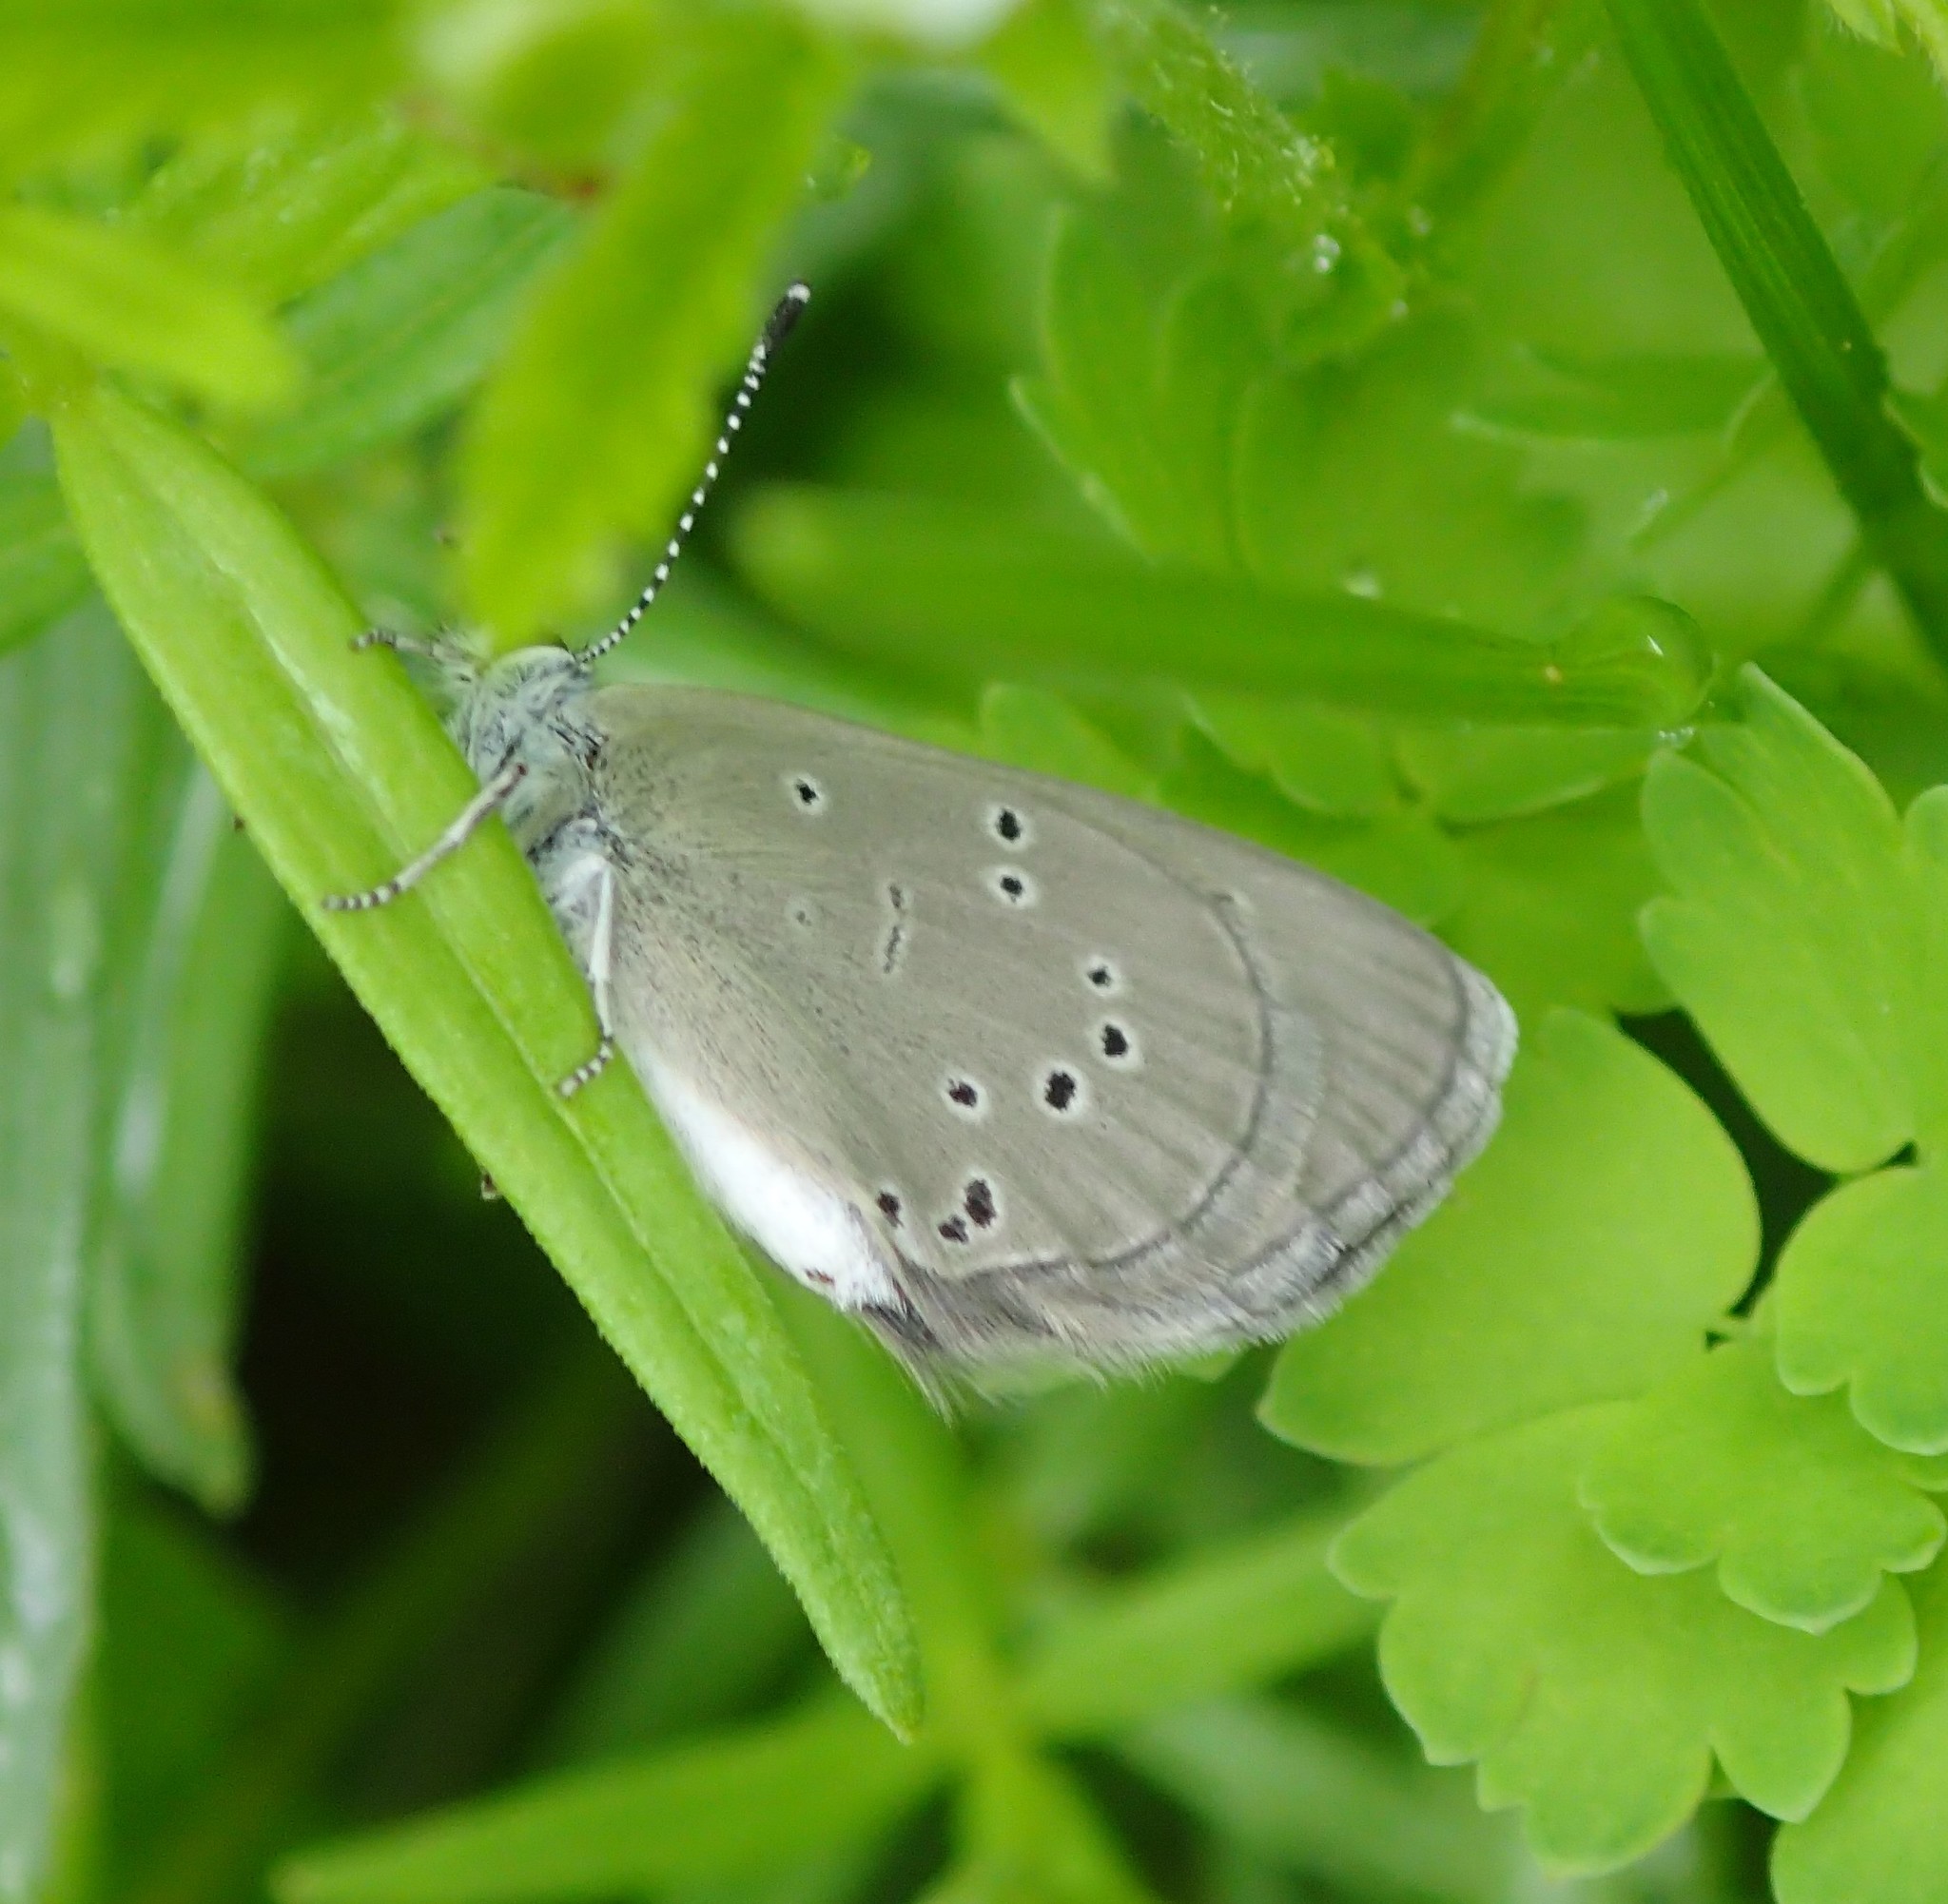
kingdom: Animalia
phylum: Arthropoda
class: Insecta
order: Lepidoptera
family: Lycaenidae
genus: Glaucopsyche
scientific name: Glaucopsyche lygdamus
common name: Silvery blue
